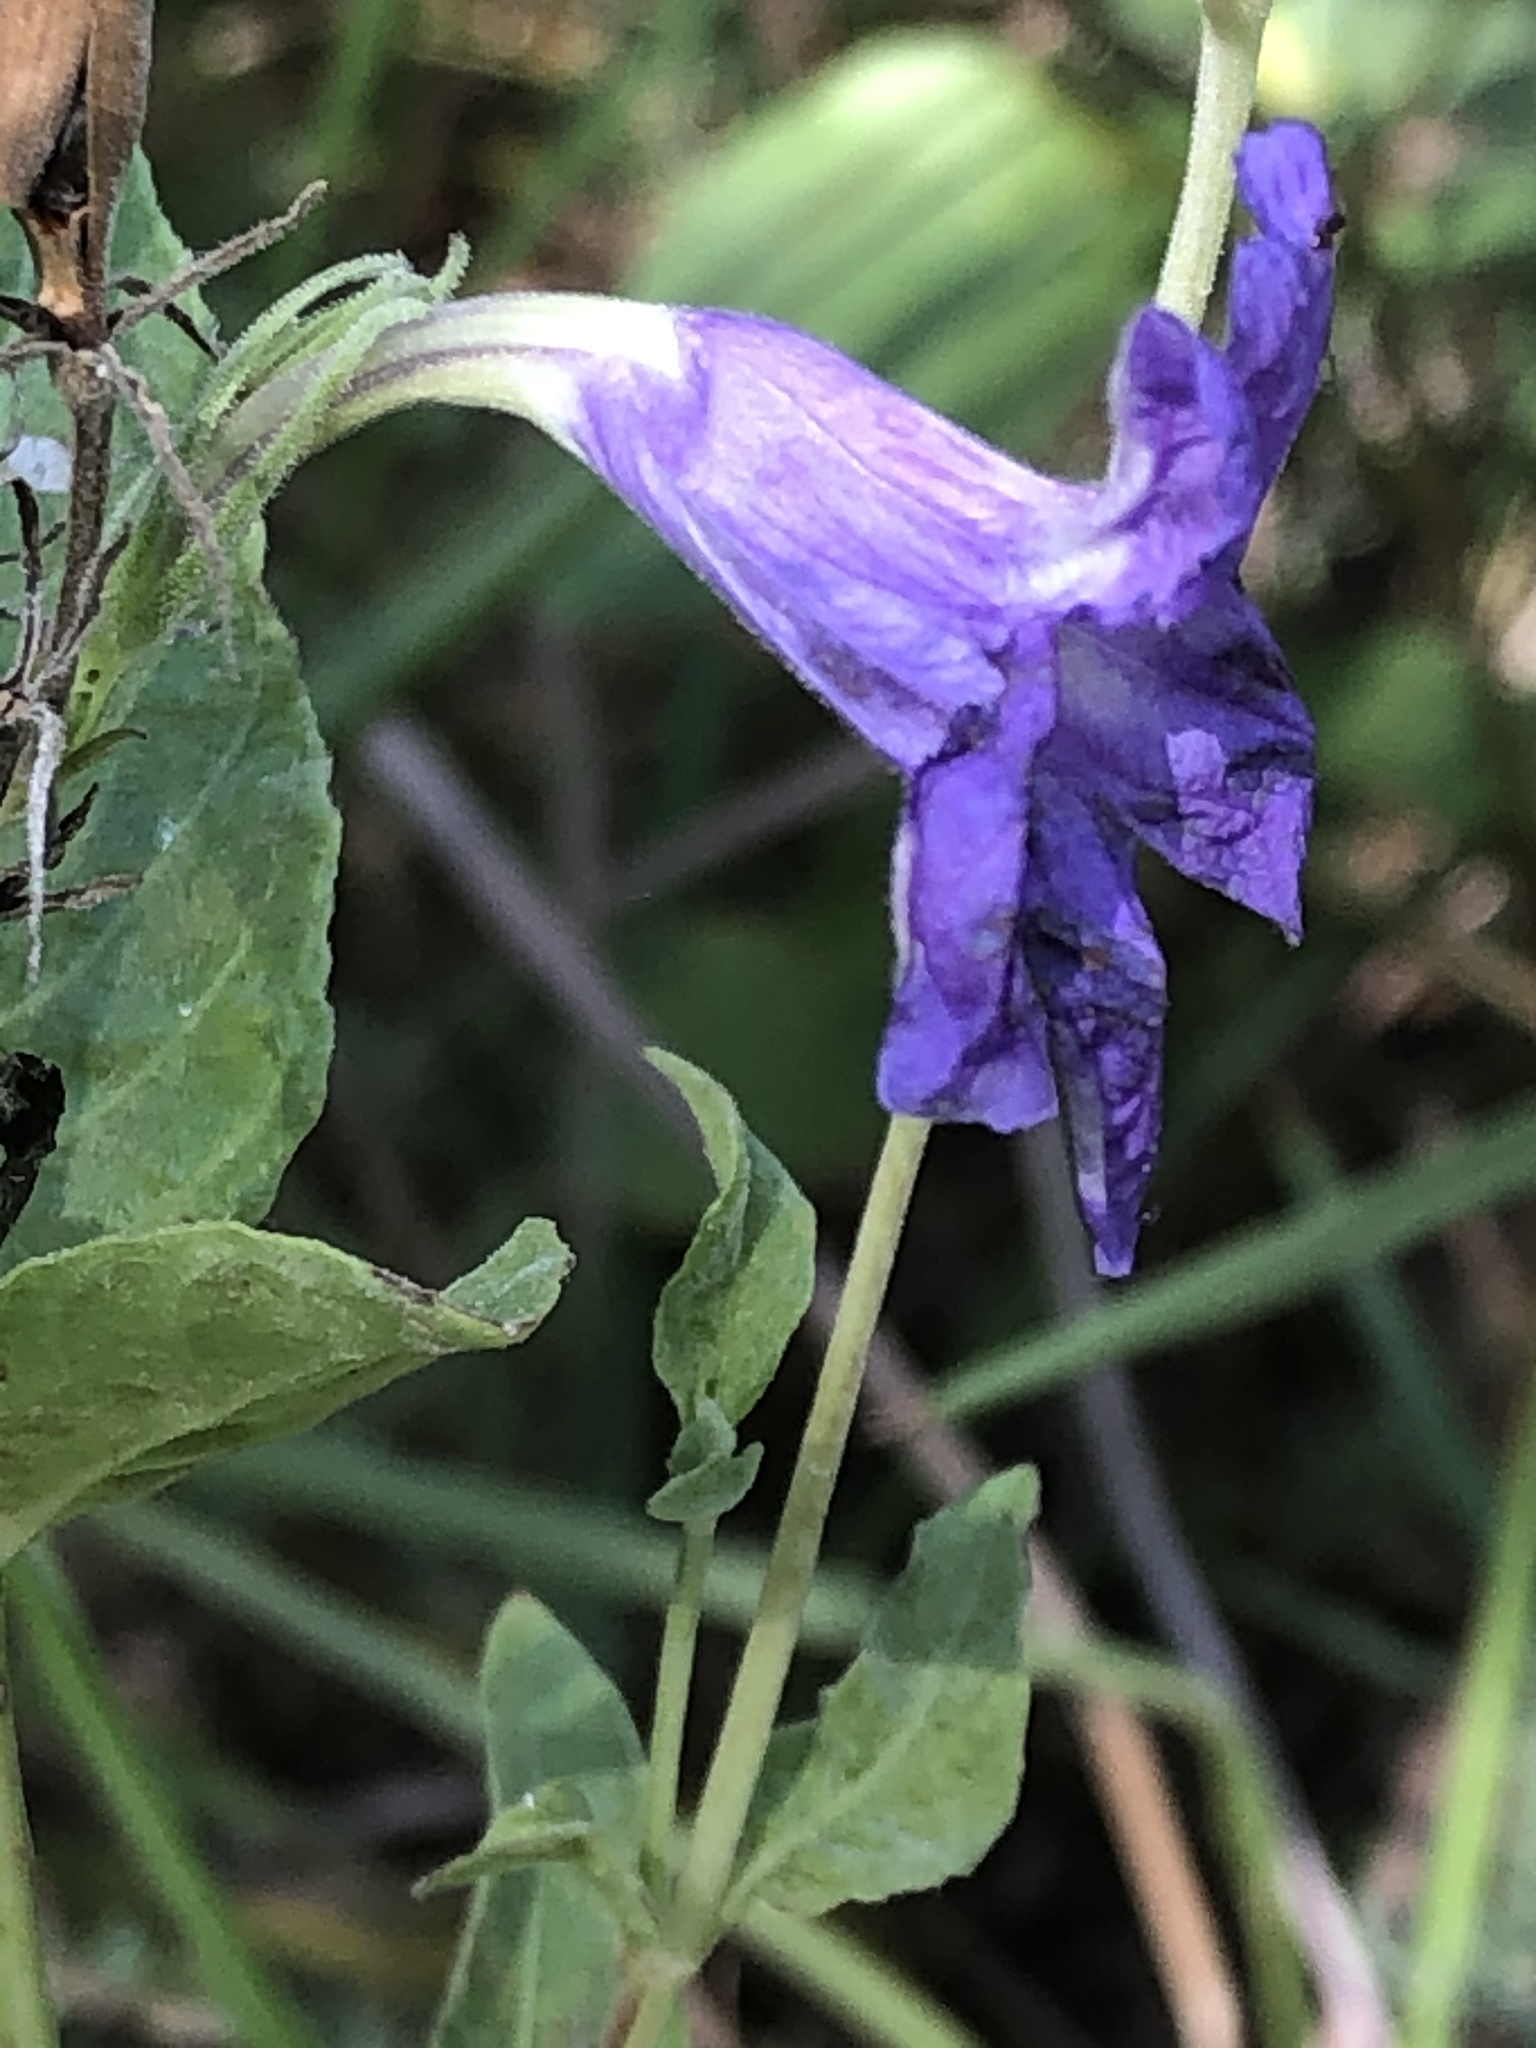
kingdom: Plantae
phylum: Tracheophyta
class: Magnoliopsida
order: Lamiales
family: Acanthaceae
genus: Ruellia
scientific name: Ruellia ciliatiflora
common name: Hairyflower wild petunia
